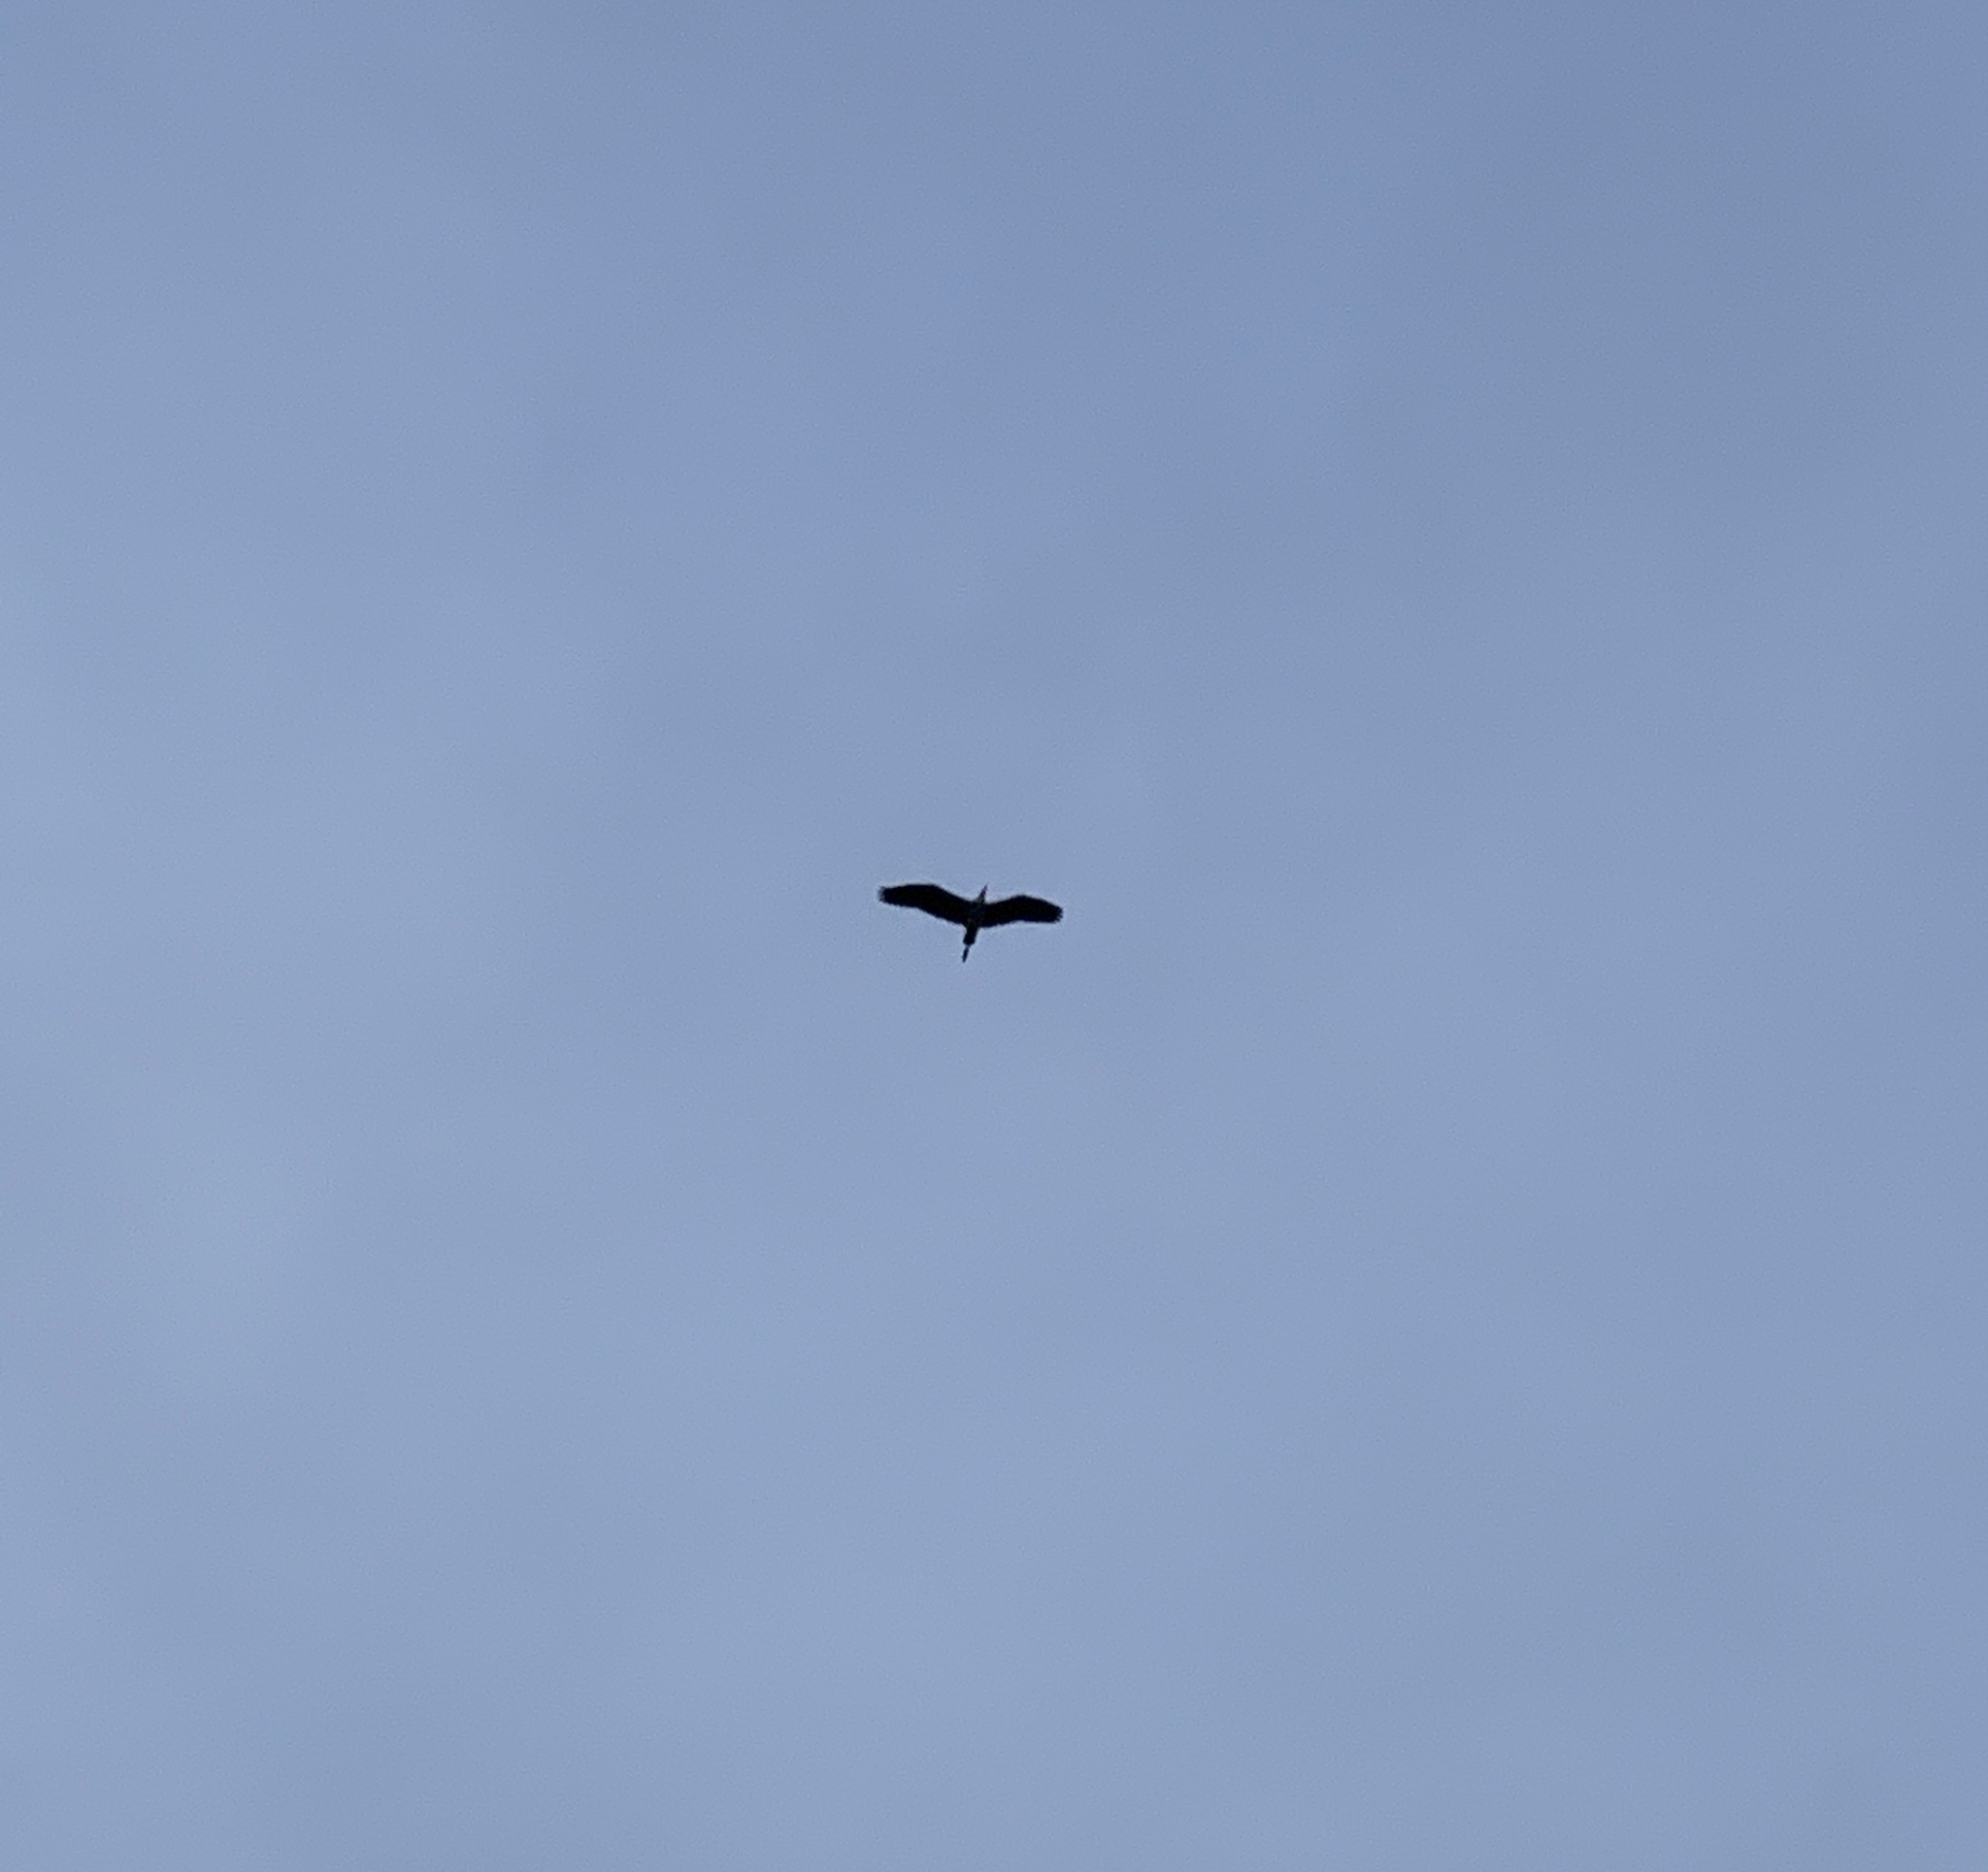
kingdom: Animalia
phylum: Chordata
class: Aves
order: Pelecaniformes
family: Ardeidae
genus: Ardea
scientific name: Ardea cinerea
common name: Grey heron
